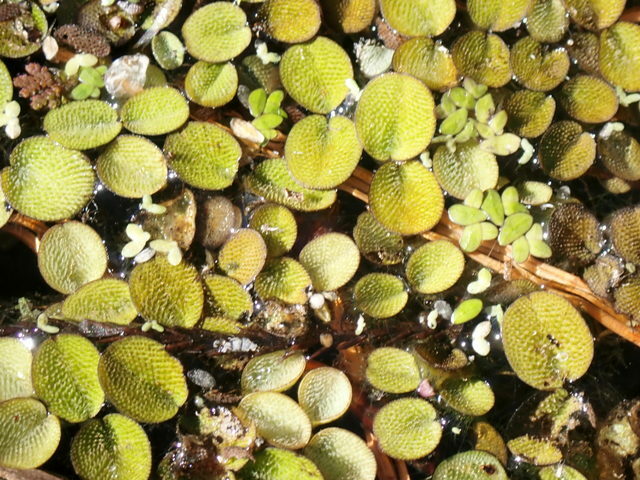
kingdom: Plantae
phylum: Tracheophyta
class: Polypodiopsida
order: Salviniales
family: Salviniaceae
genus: Salvinia
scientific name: Salvinia minima
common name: Water spangles
